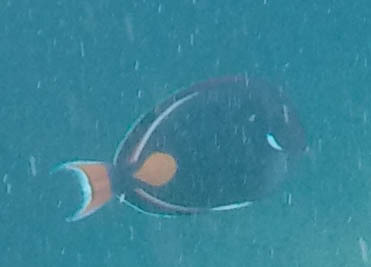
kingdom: Animalia
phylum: Chordata
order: Perciformes
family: Acanthuridae
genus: Acanthurus
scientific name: Acanthurus achilles
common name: Achilles tang
